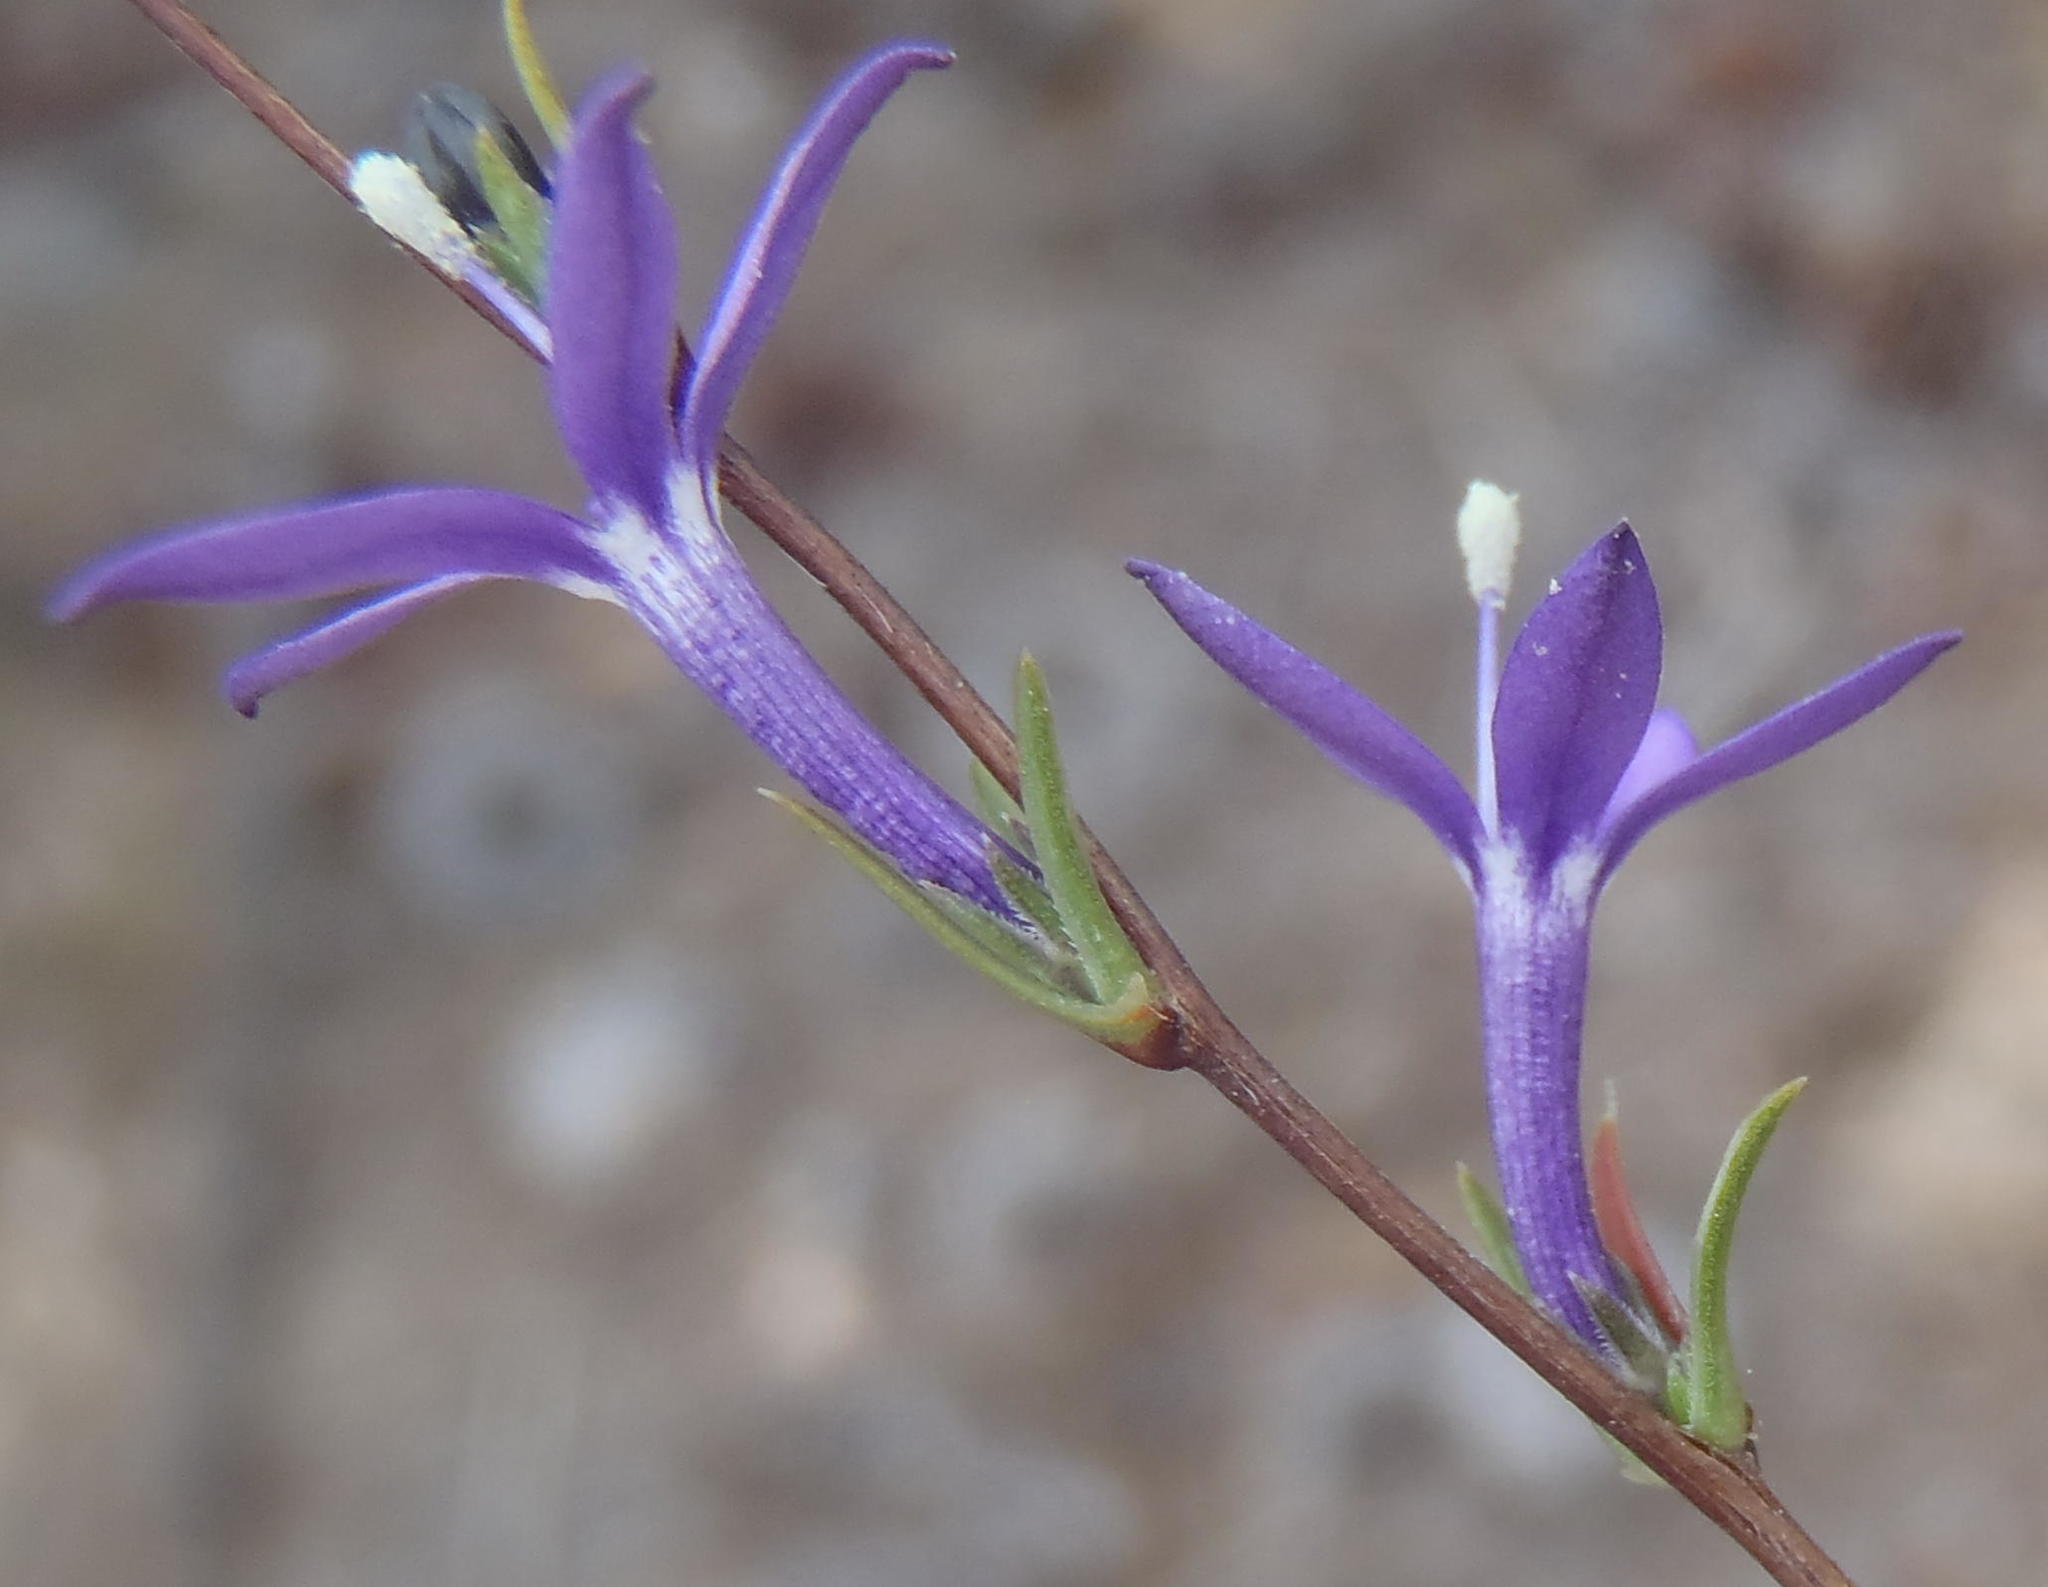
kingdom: Plantae
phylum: Tracheophyta
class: Magnoliopsida
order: Asterales
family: Campanulaceae
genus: Theilera
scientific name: Theilera guthriei
